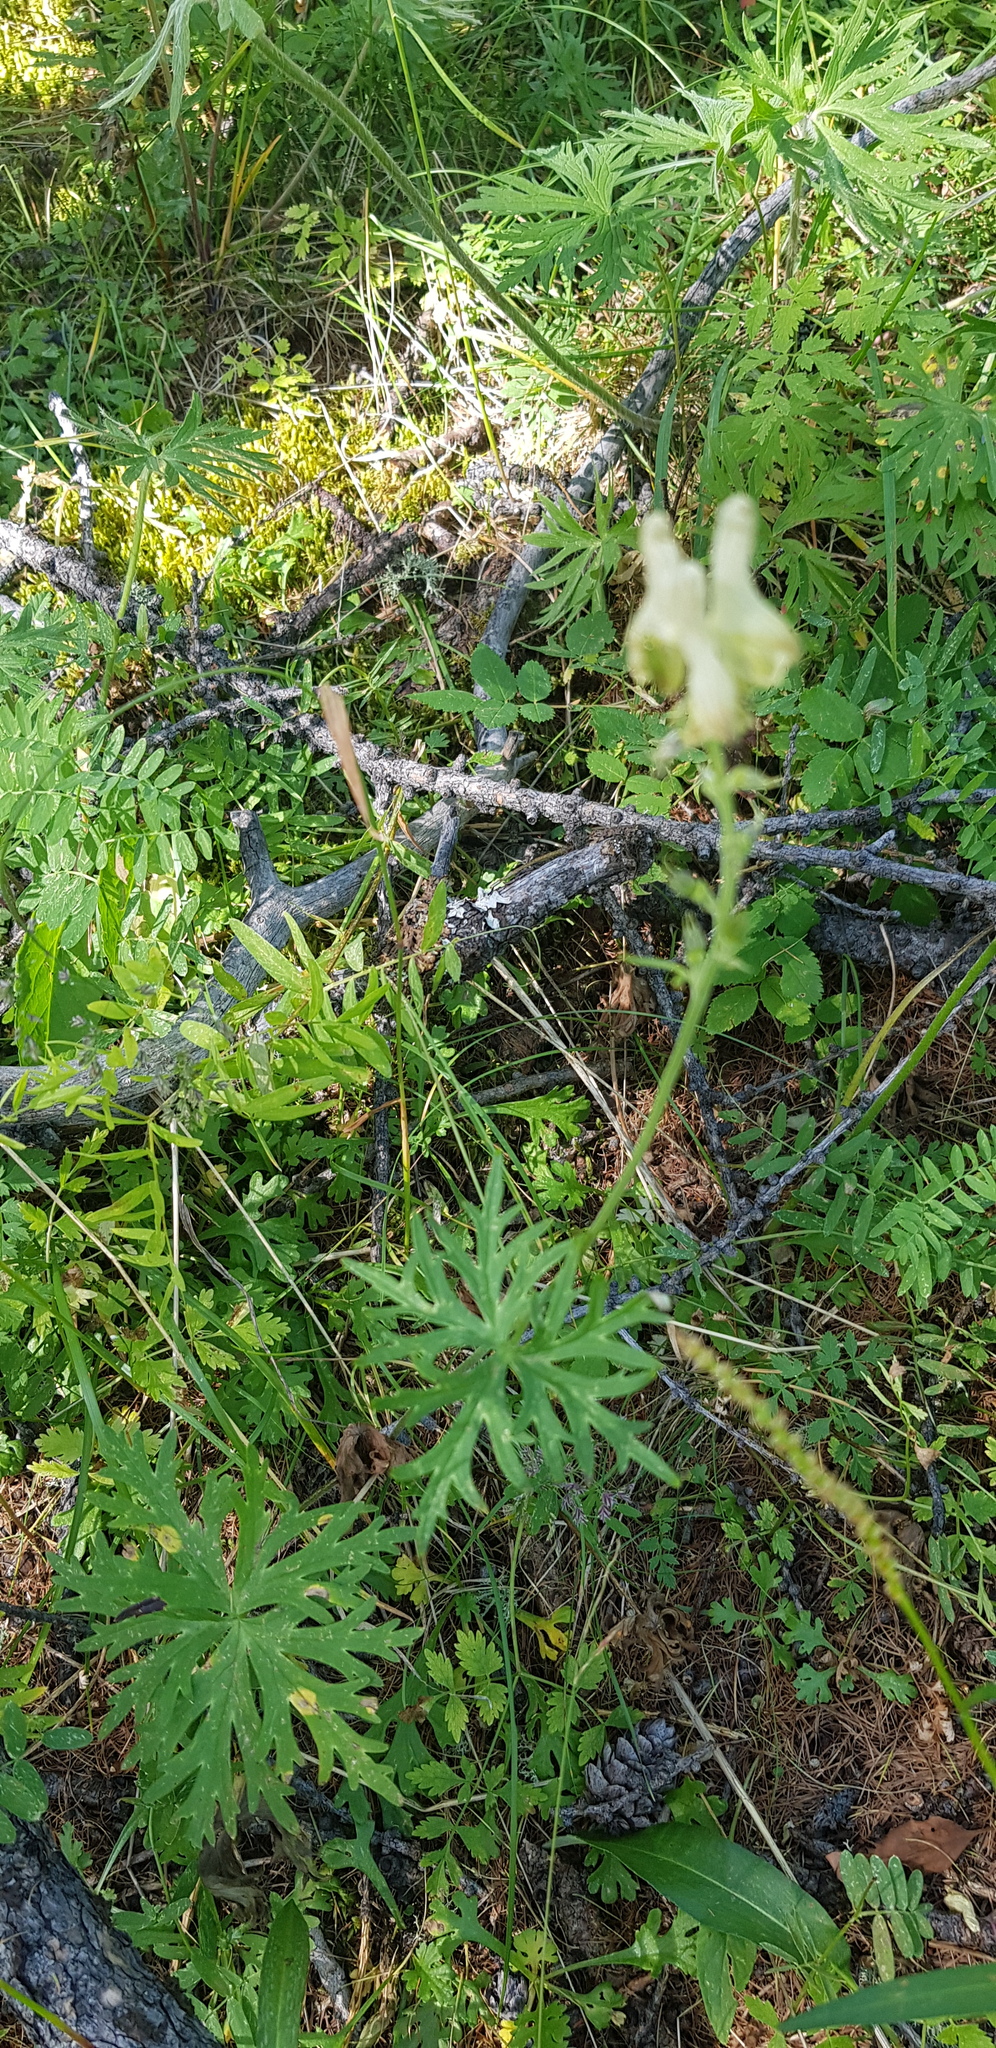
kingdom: Plantae
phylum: Tracheophyta
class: Magnoliopsida
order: Ranunculales
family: Ranunculaceae
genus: Aconitum
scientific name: Aconitum barbatum
